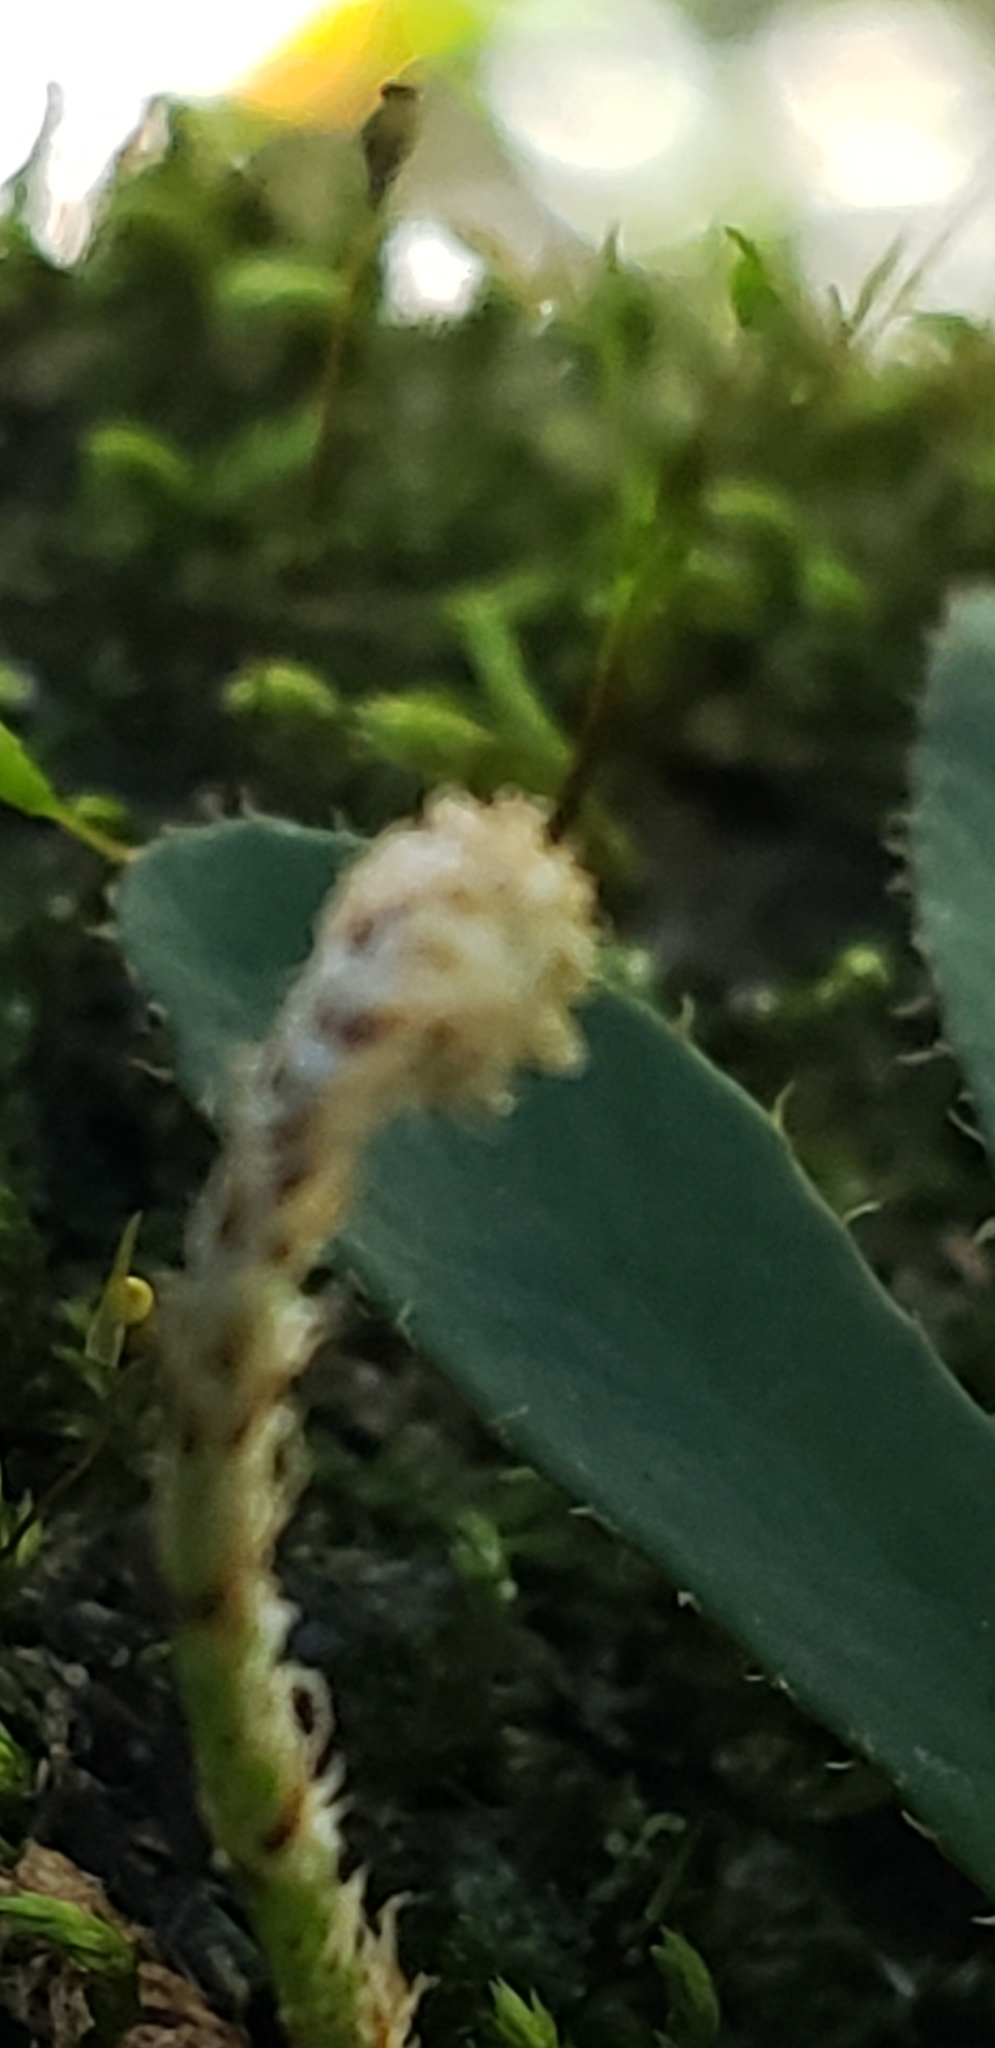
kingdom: Plantae
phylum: Tracheophyta
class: Polypodiopsida
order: Polypodiales
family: Polypodiaceae
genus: Pleopeltis
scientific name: Pleopeltis michauxiana
